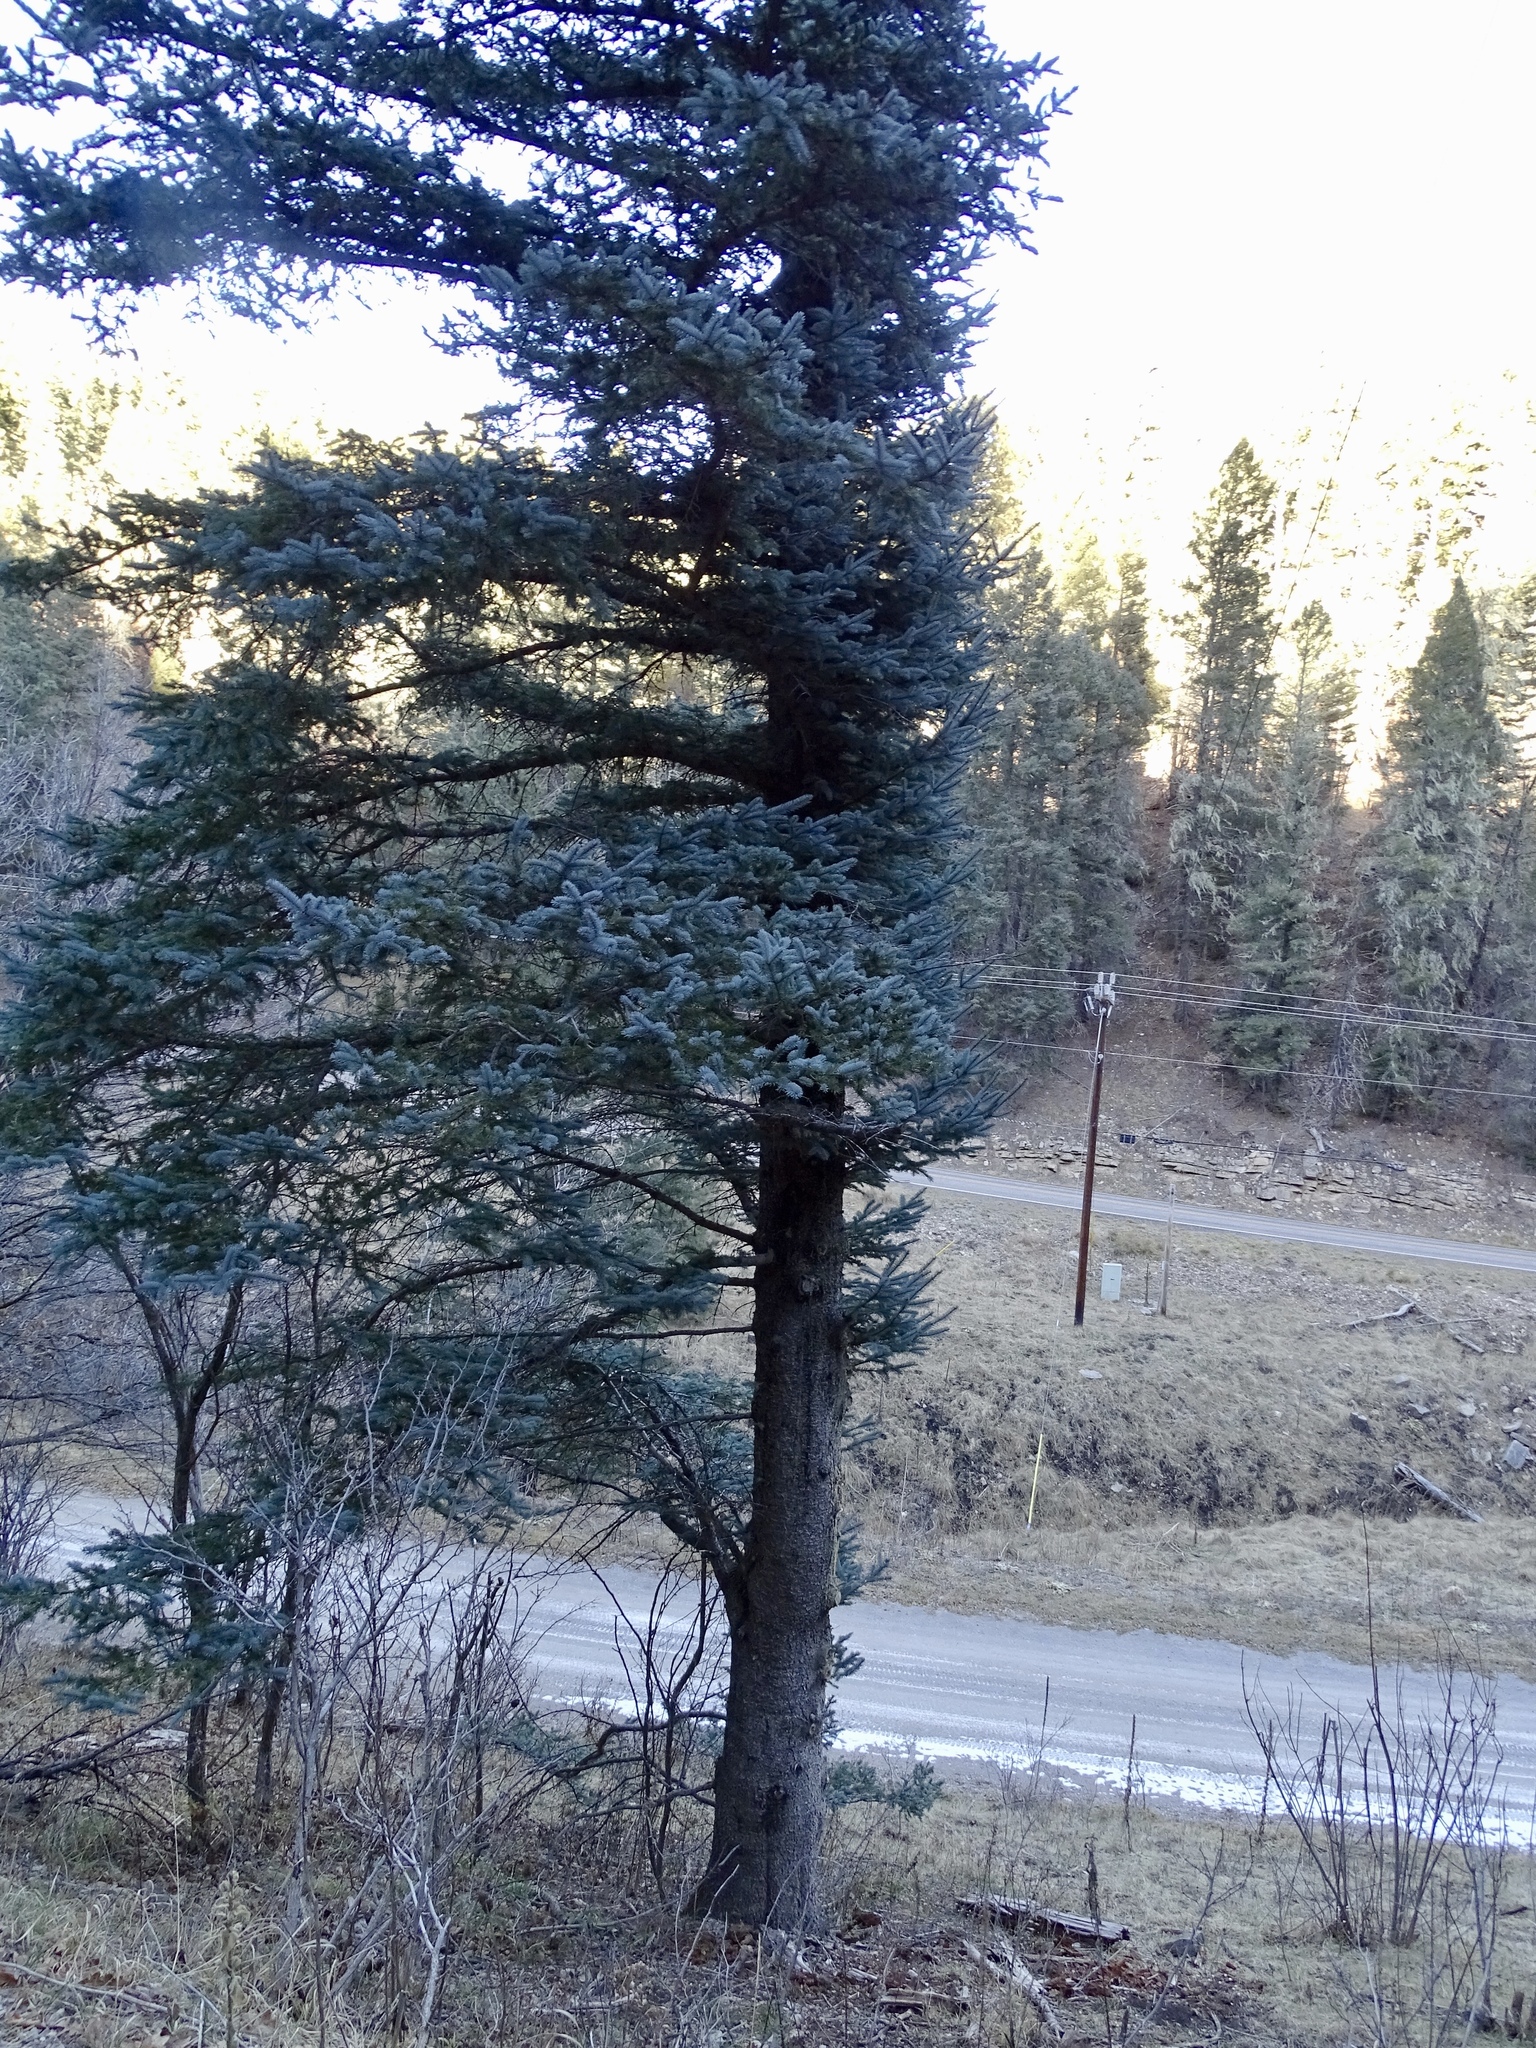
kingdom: Plantae
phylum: Tracheophyta
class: Pinopsida
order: Pinales
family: Pinaceae
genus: Picea
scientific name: Picea pungens
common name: Colorado spruce
